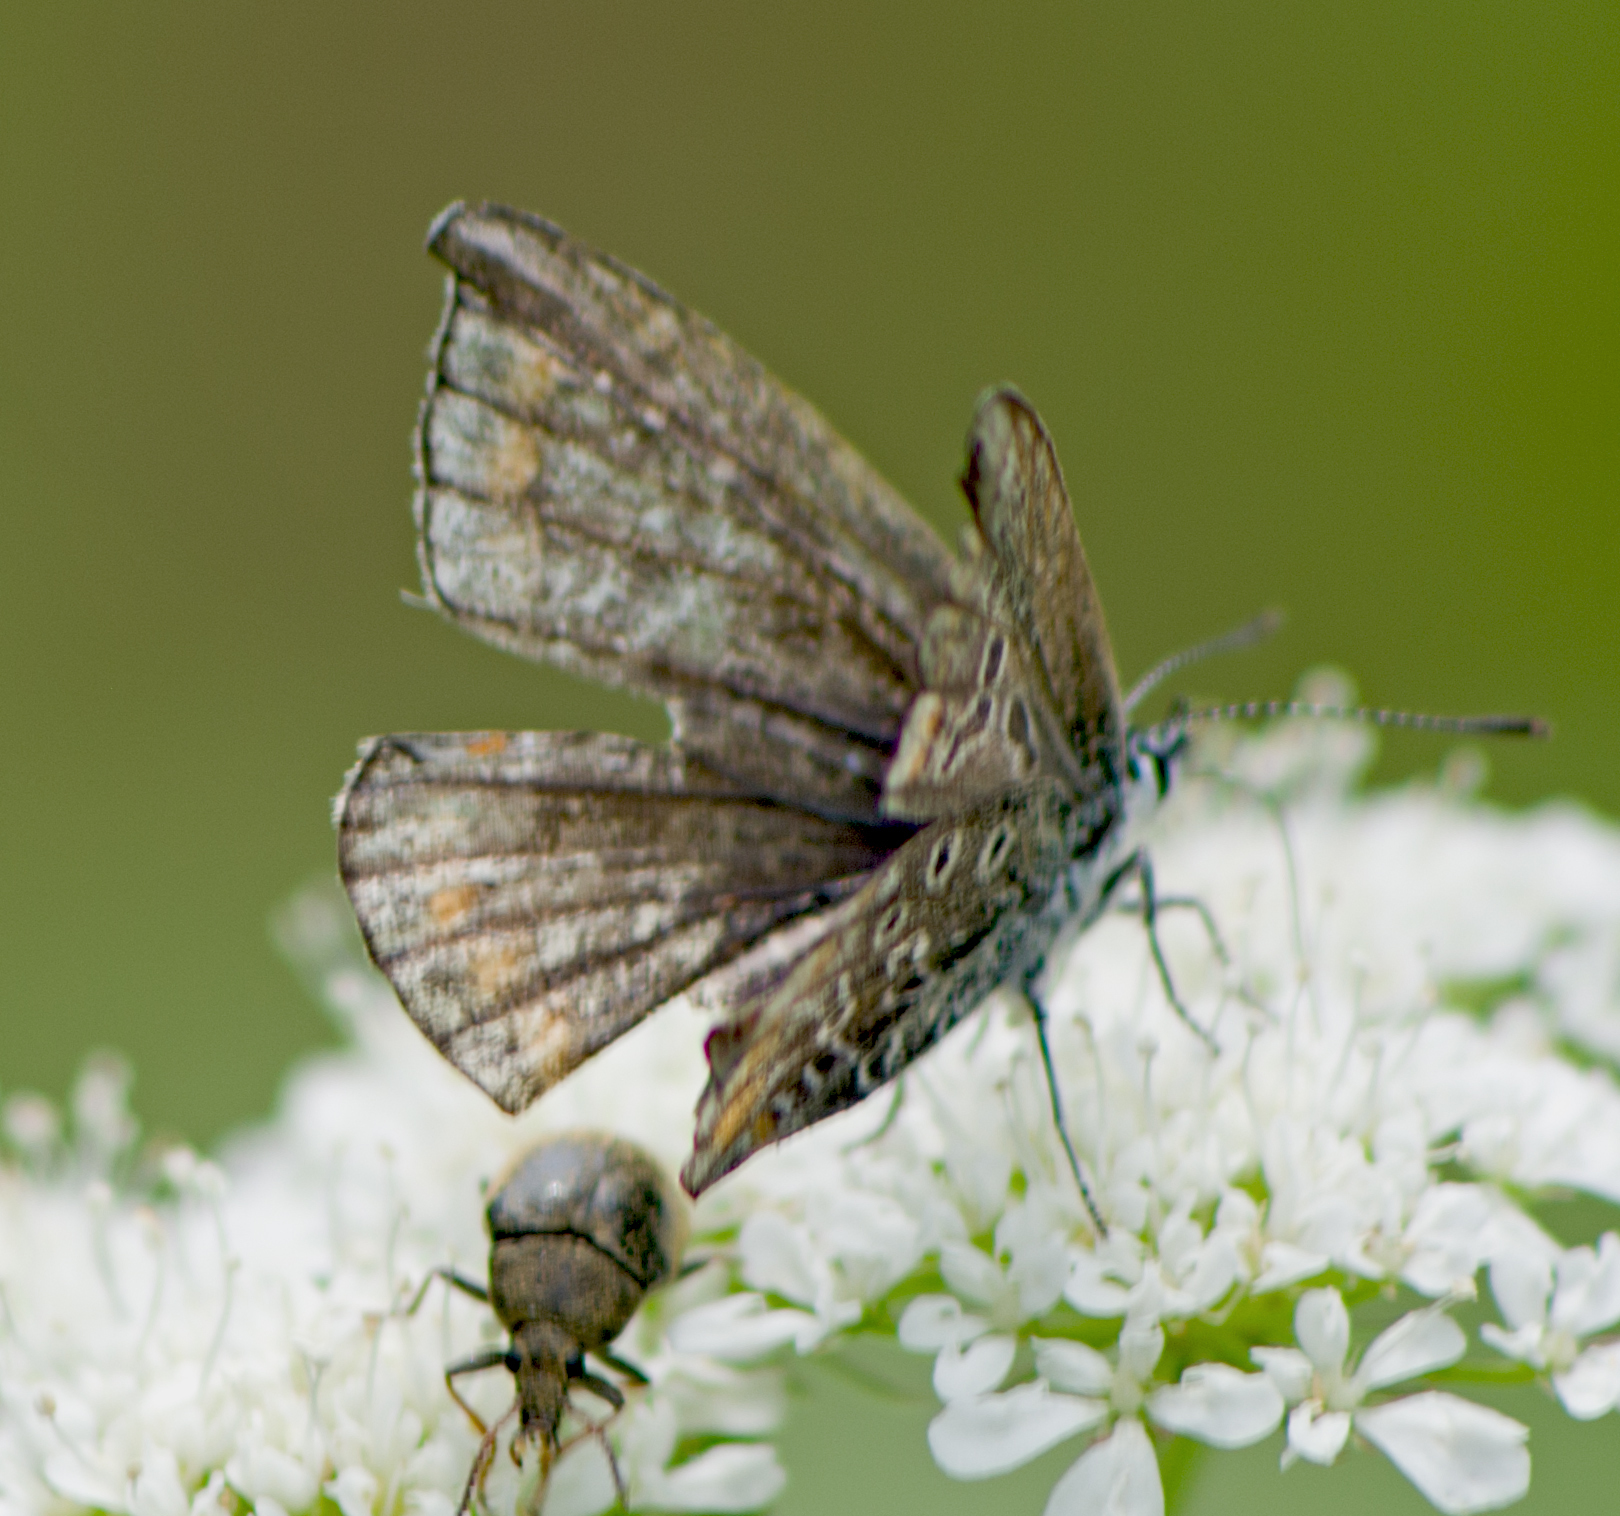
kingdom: Animalia
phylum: Arthropoda
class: Insecta
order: Lepidoptera
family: Lycaenidae
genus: Polyommatus
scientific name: Polyommatus icarus
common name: Common blue
